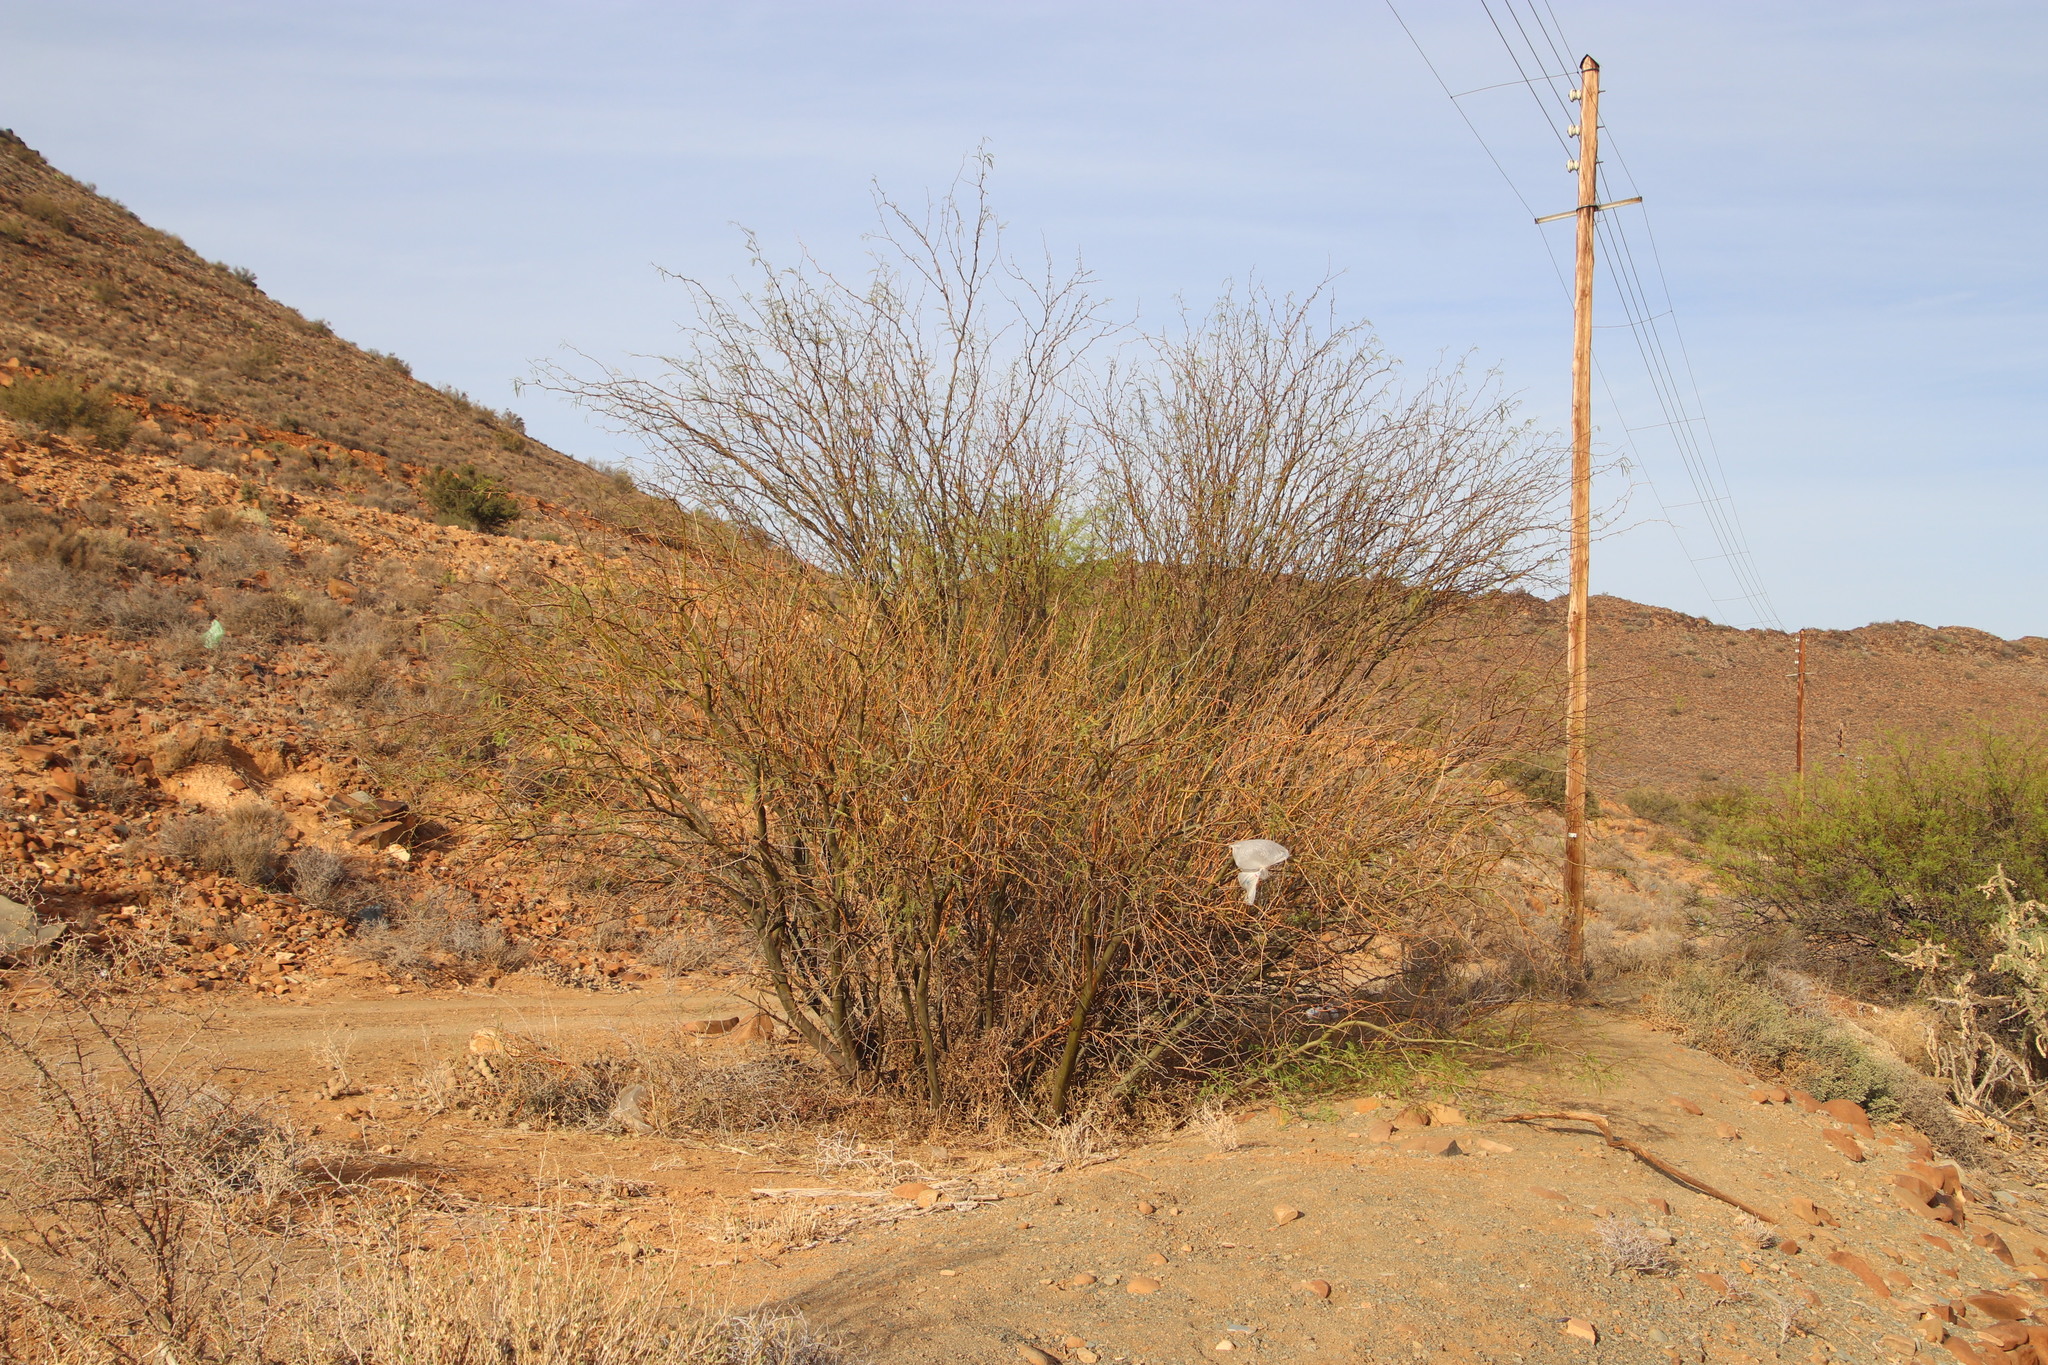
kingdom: Plantae
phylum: Tracheophyta
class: Magnoliopsida
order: Fabales
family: Fabaceae
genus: Prosopis
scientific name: Prosopis pubescens
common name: Screw-bean
